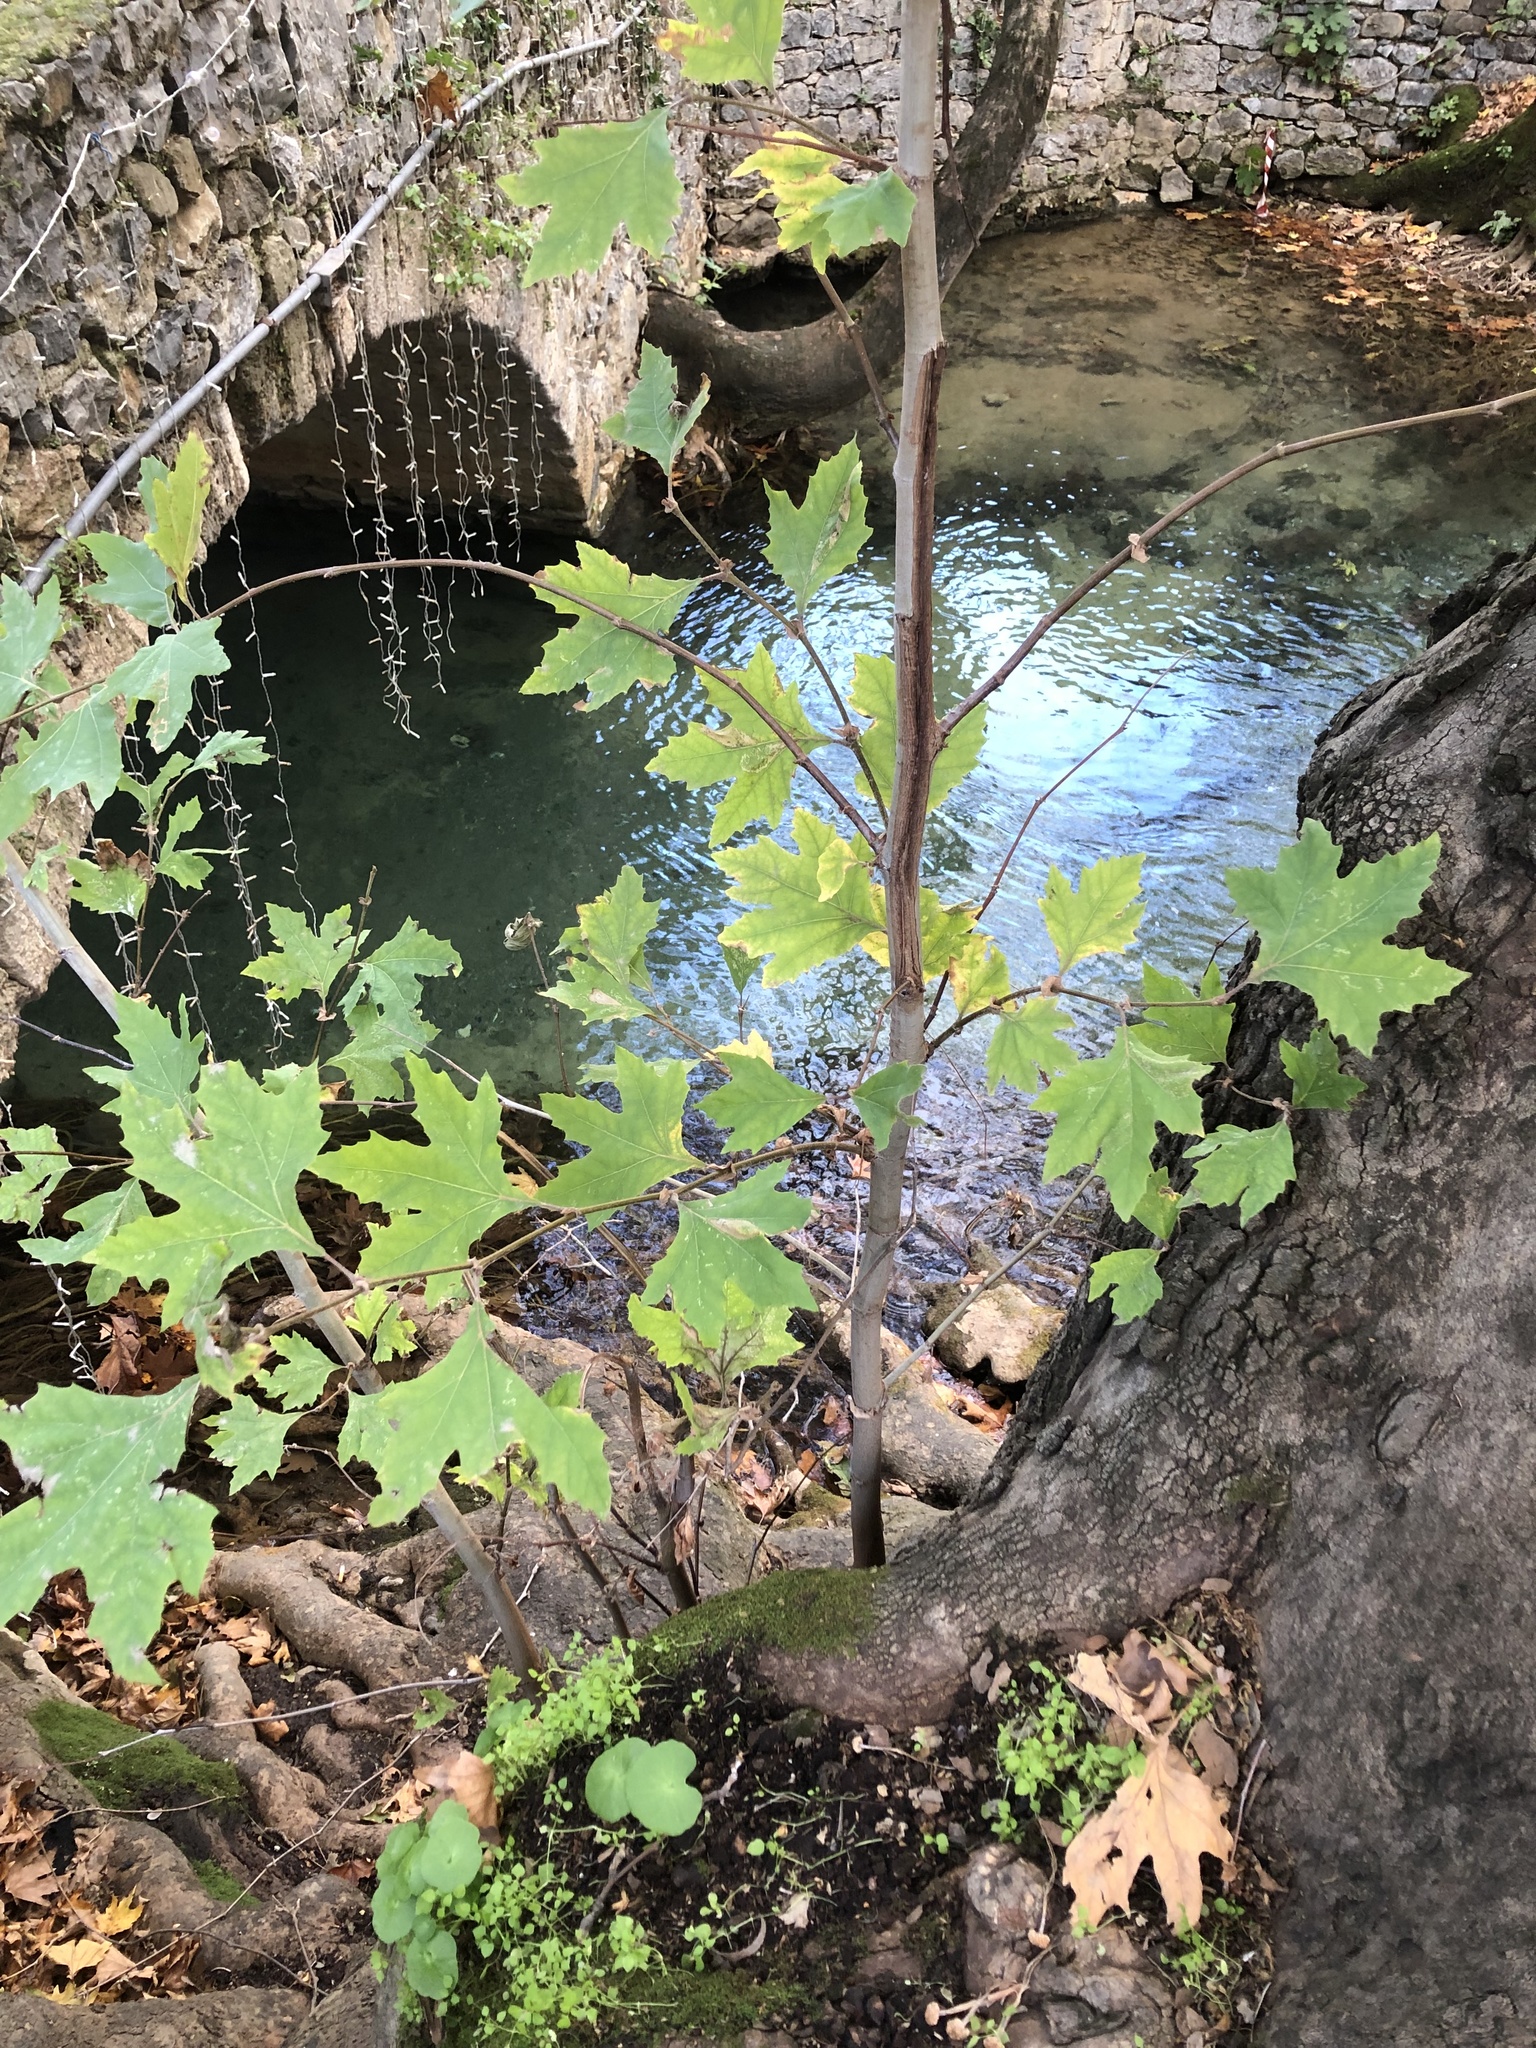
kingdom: Plantae
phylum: Tracheophyta
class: Magnoliopsida
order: Proteales
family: Platanaceae
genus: Platanus
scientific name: Platanus orientalis
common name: Oriental plane
